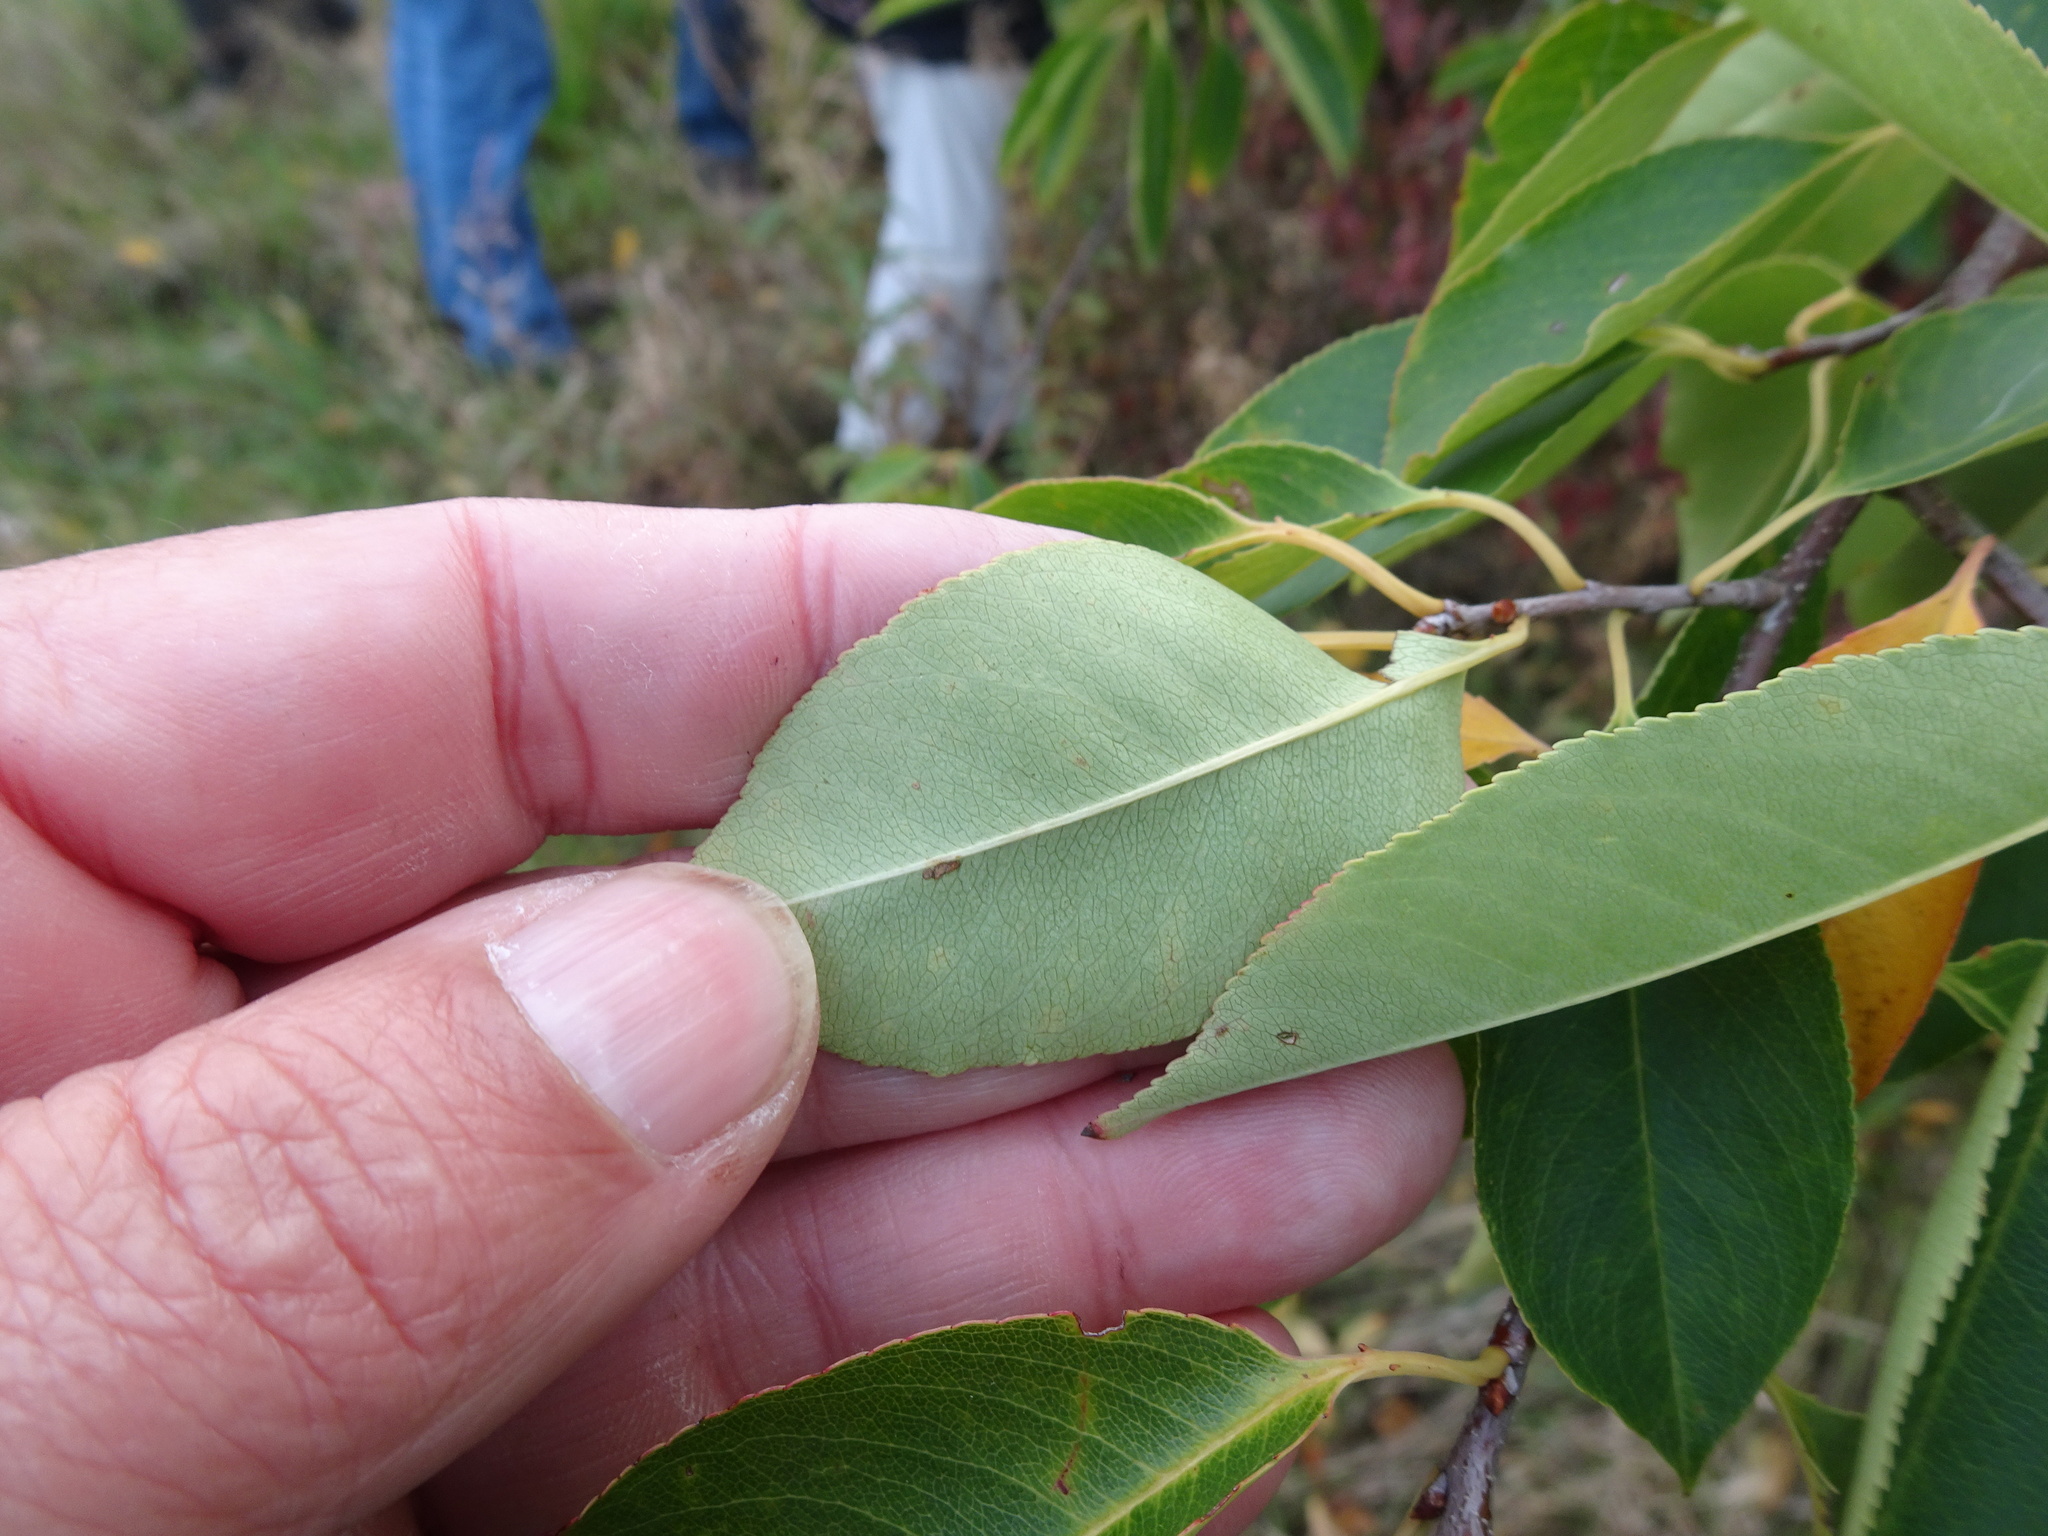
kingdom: Plantae
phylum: Tracheophyta
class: Magnoliopsida
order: Rosales
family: Rosaceae
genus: Prunus
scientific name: Prunus serotina
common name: Black cherry
